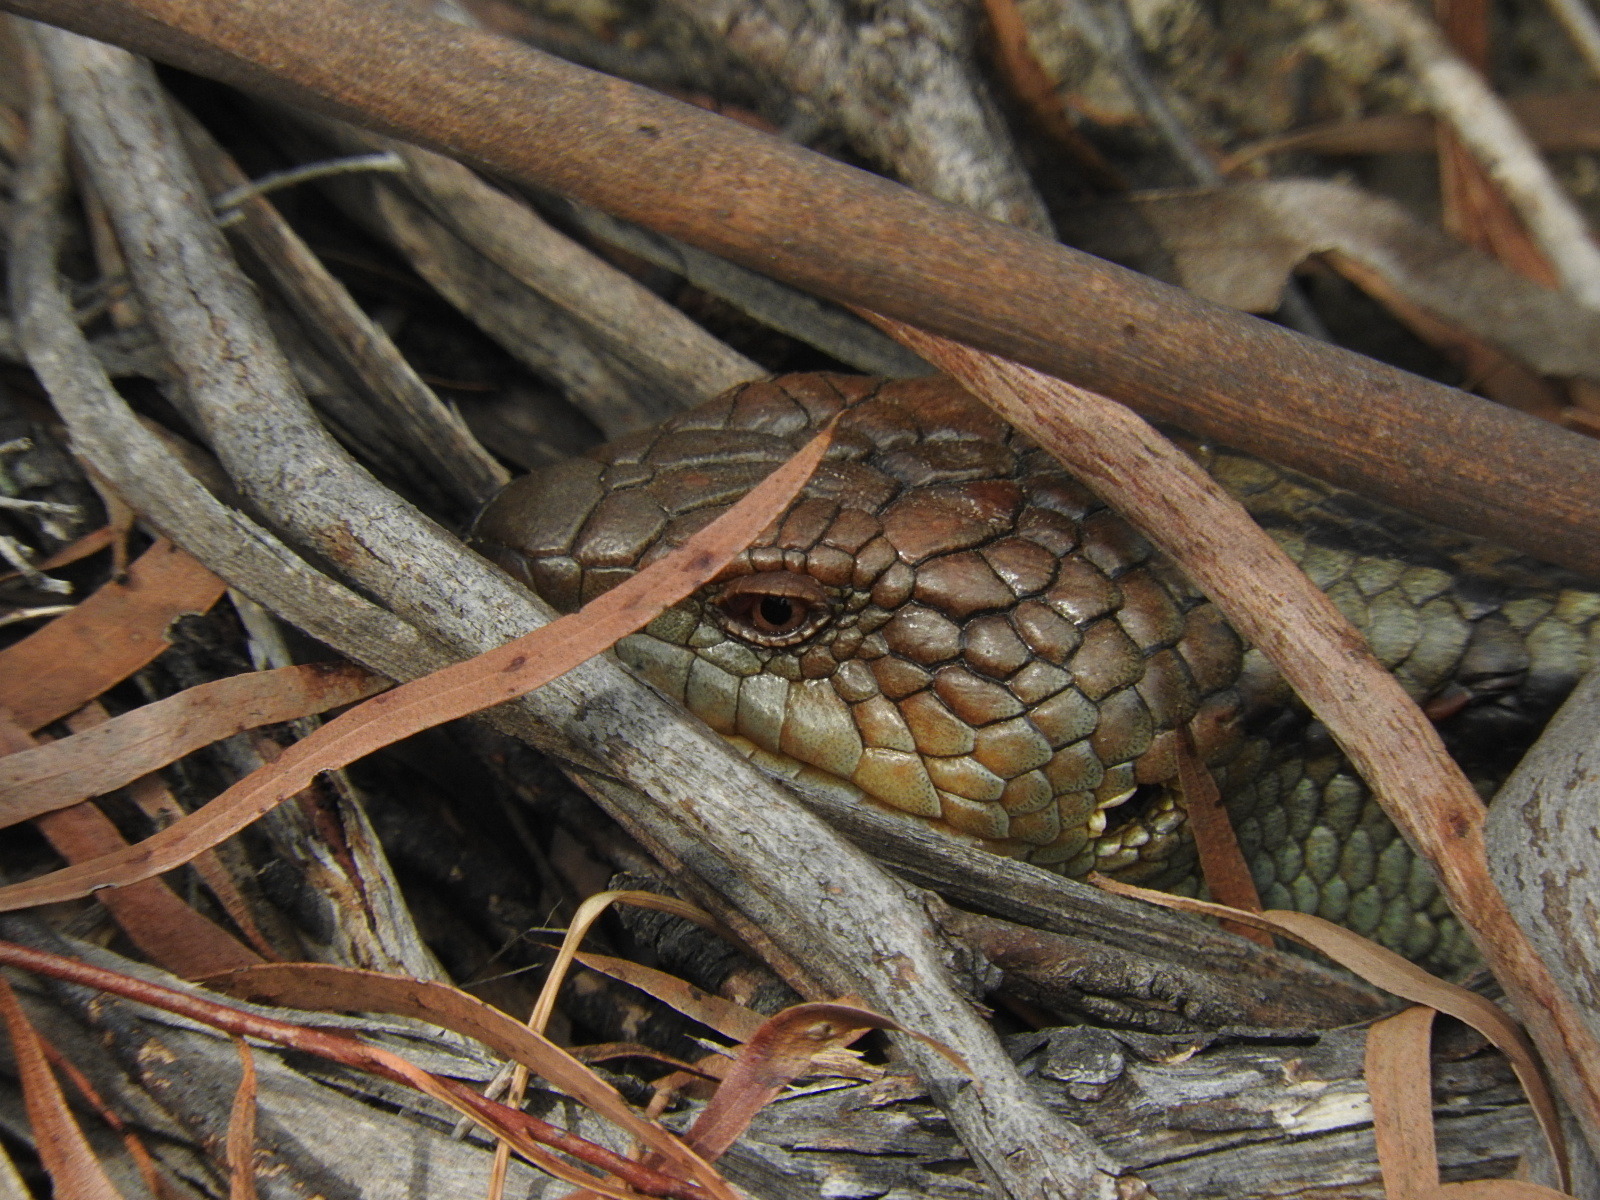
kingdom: Animalia
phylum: Chordata
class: Squamata
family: Scincidae
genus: Tiliqua
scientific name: Tiliqua nigrolutea
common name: Blotched blue-tongued lizard
